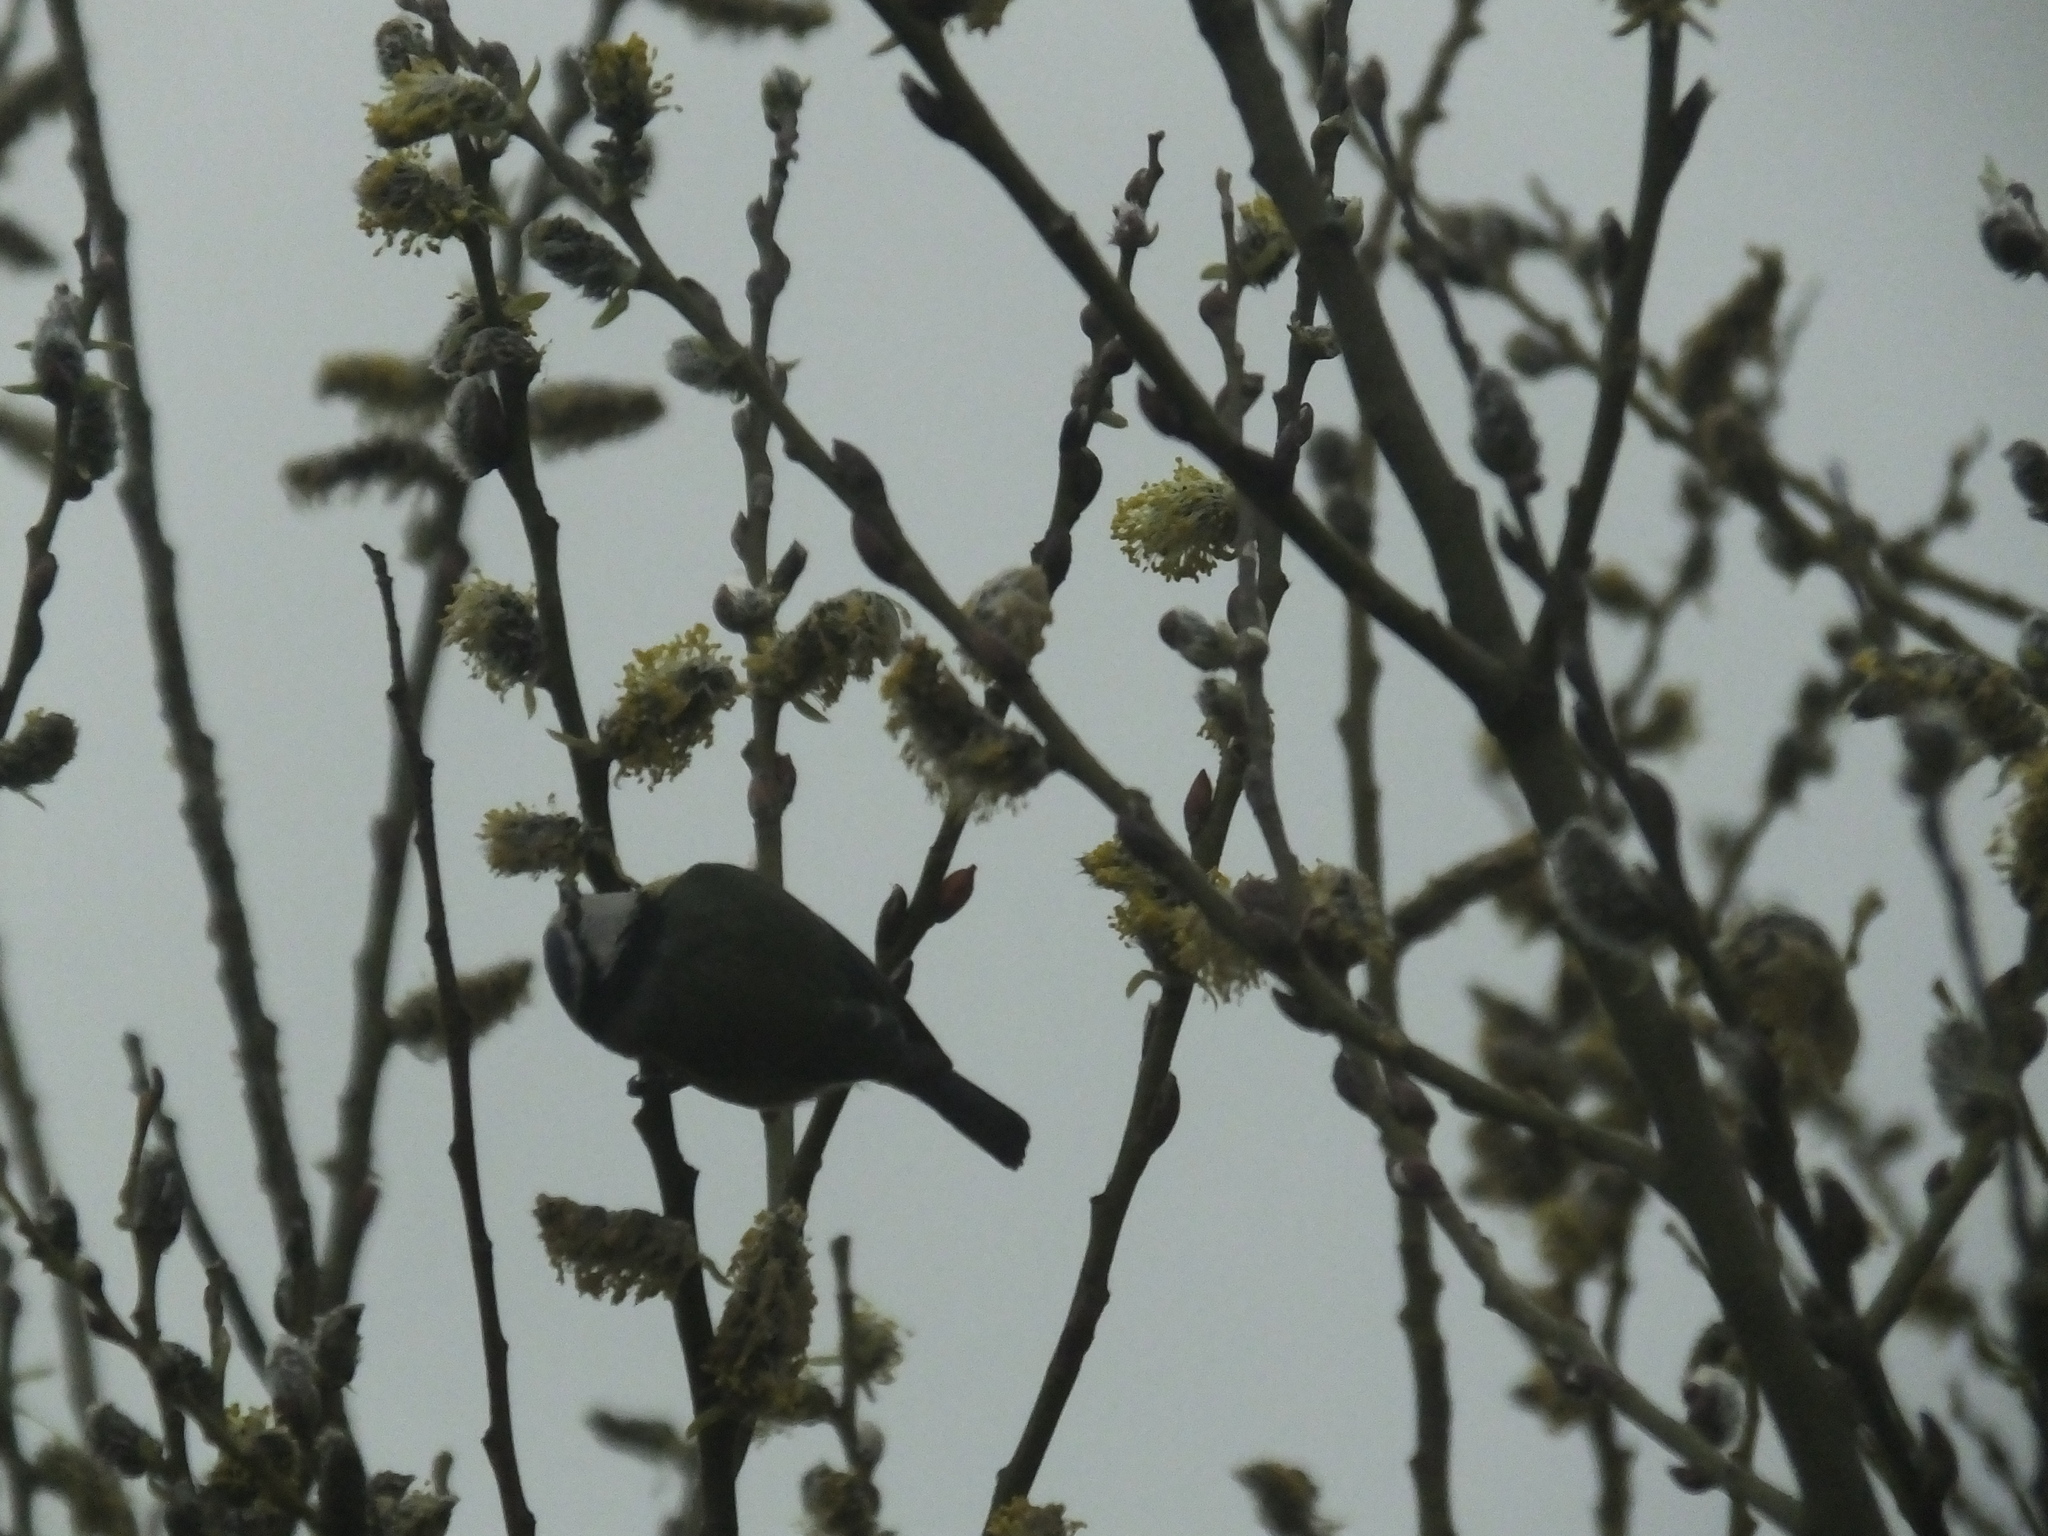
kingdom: Animalia
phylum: Chordata
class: Aves
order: Passeriformes
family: Paridae
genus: Cyanistes
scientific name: Cyanistes caeruleus
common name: Eurasian blue tit
